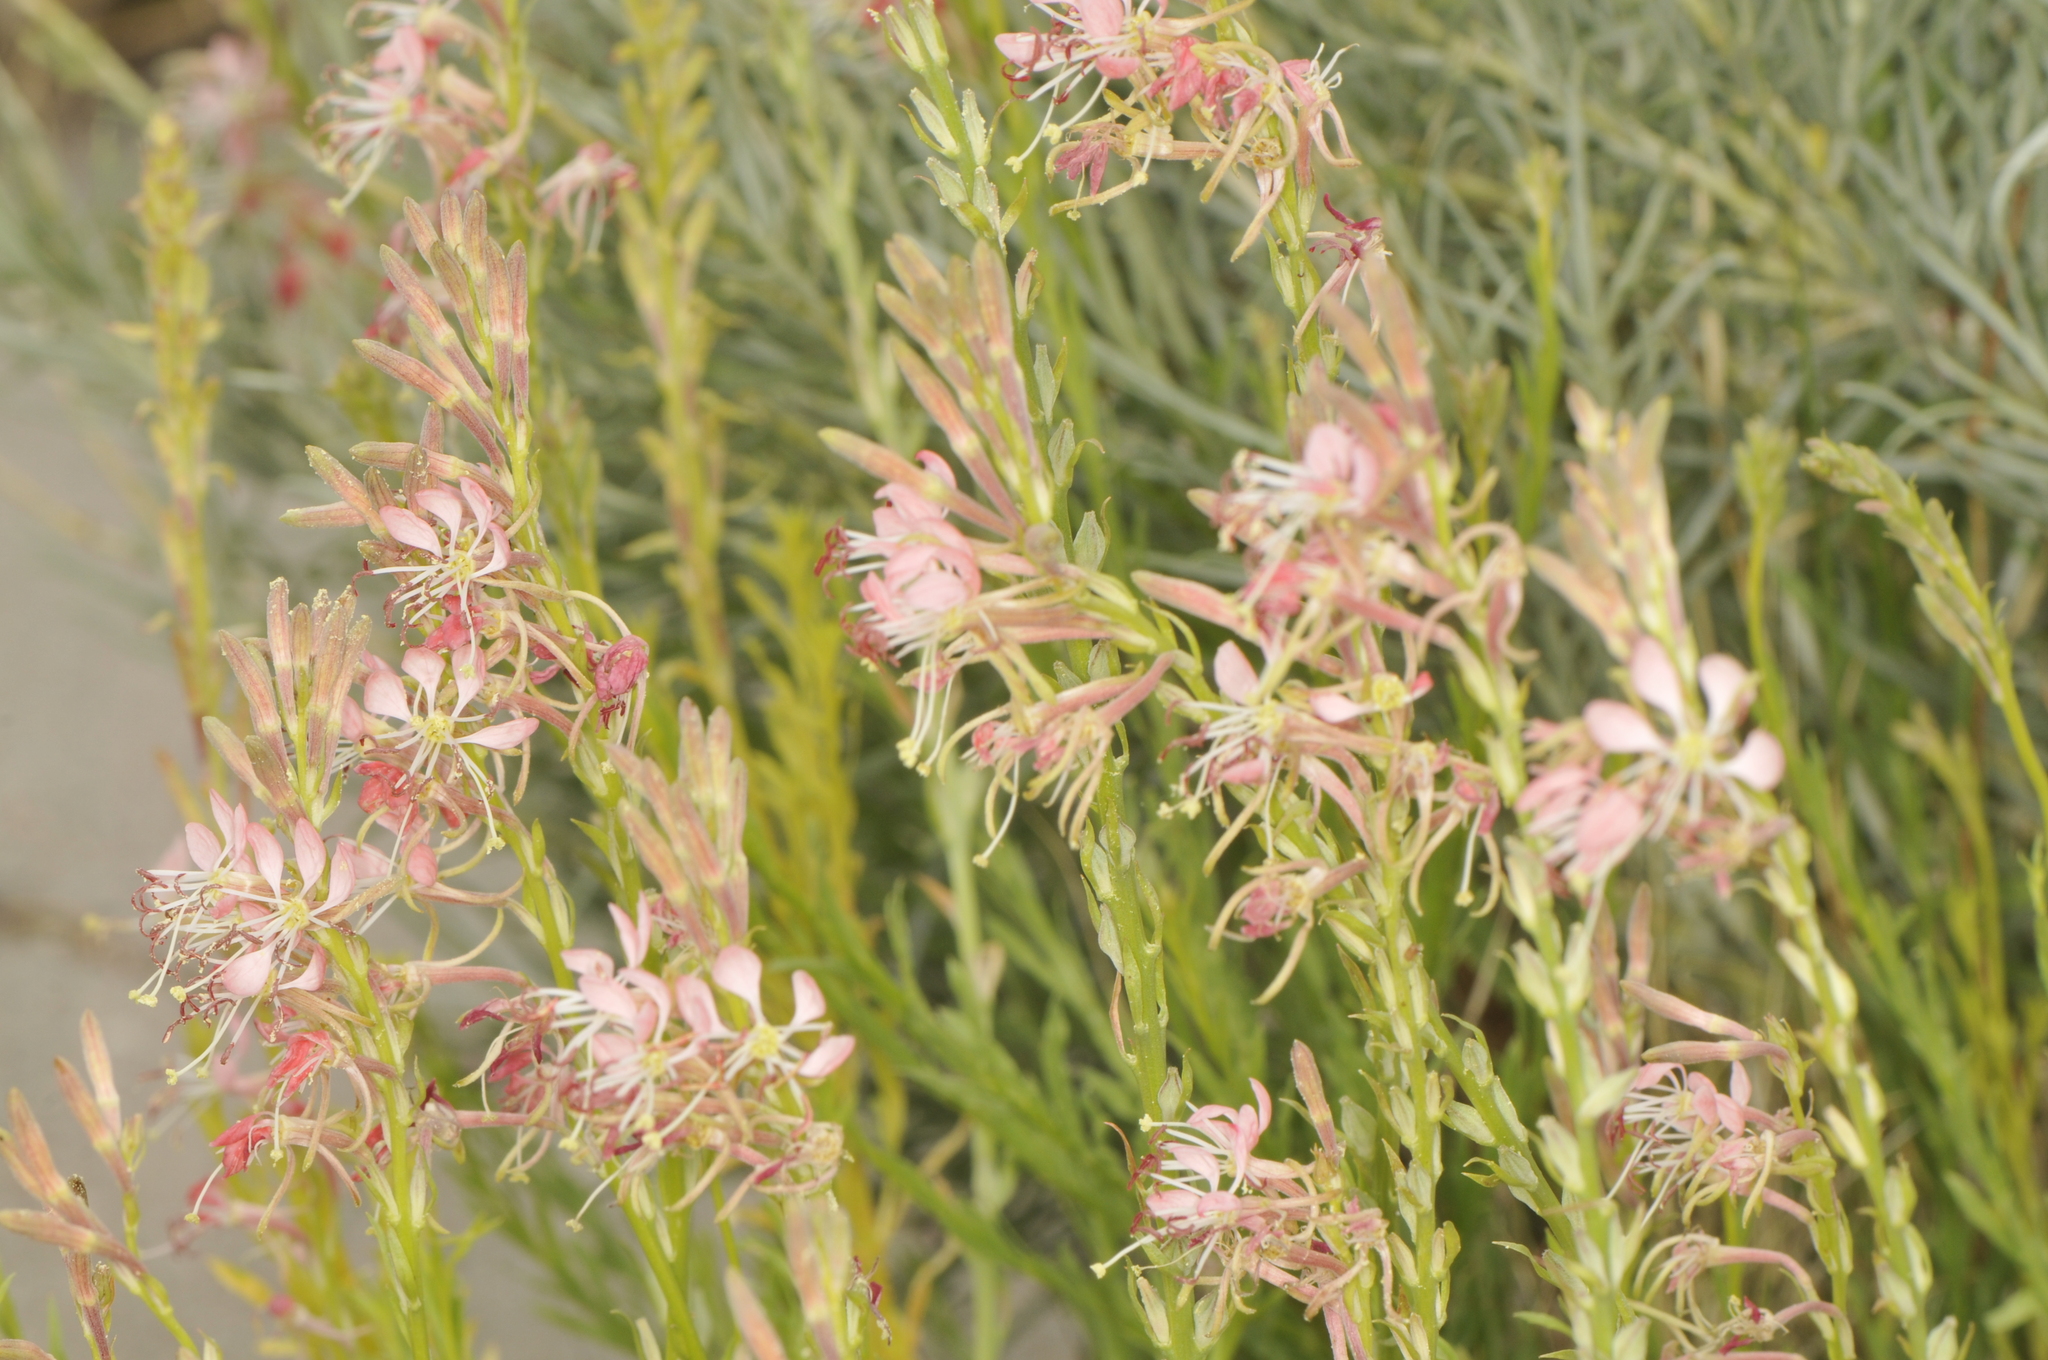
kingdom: Plantae
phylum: Tracheophyta
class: Magnoliopsida
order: Myrtales
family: Onagraceae
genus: Oenothera
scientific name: Oenothera suffrutescens
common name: Scarlet beeblossom
